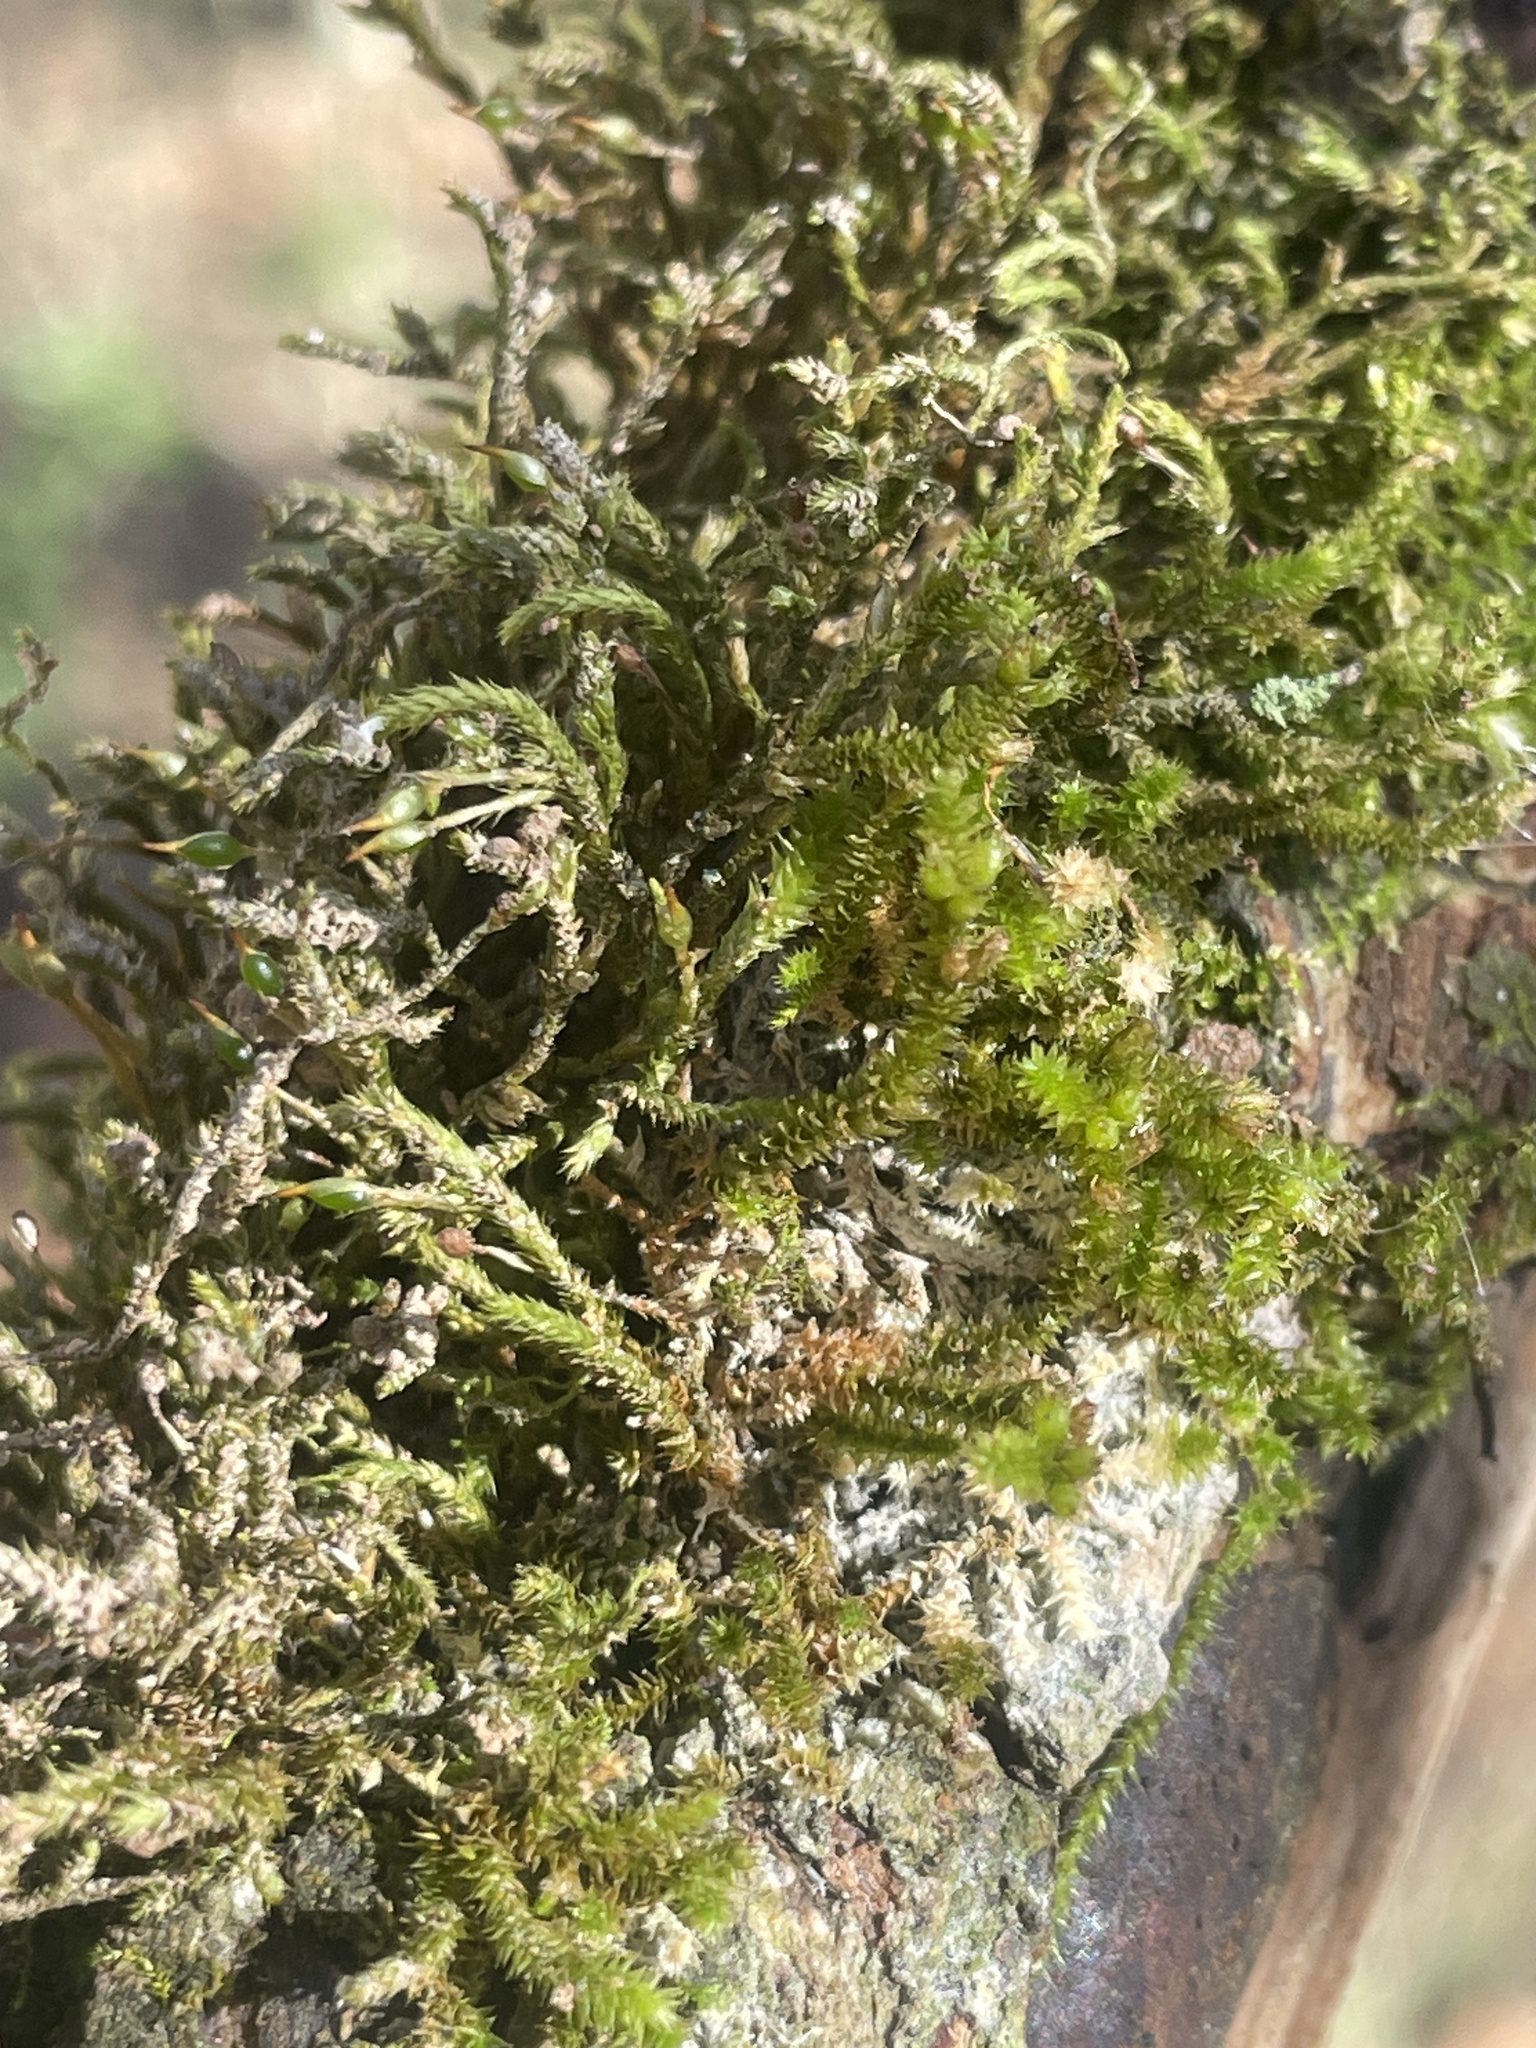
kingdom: Plantae
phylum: Bryophyta
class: Bryopsida
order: Hypnales
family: Leucodontaceae
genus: Leucodon
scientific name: Leucodon julaceus
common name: Smooth hook moss
